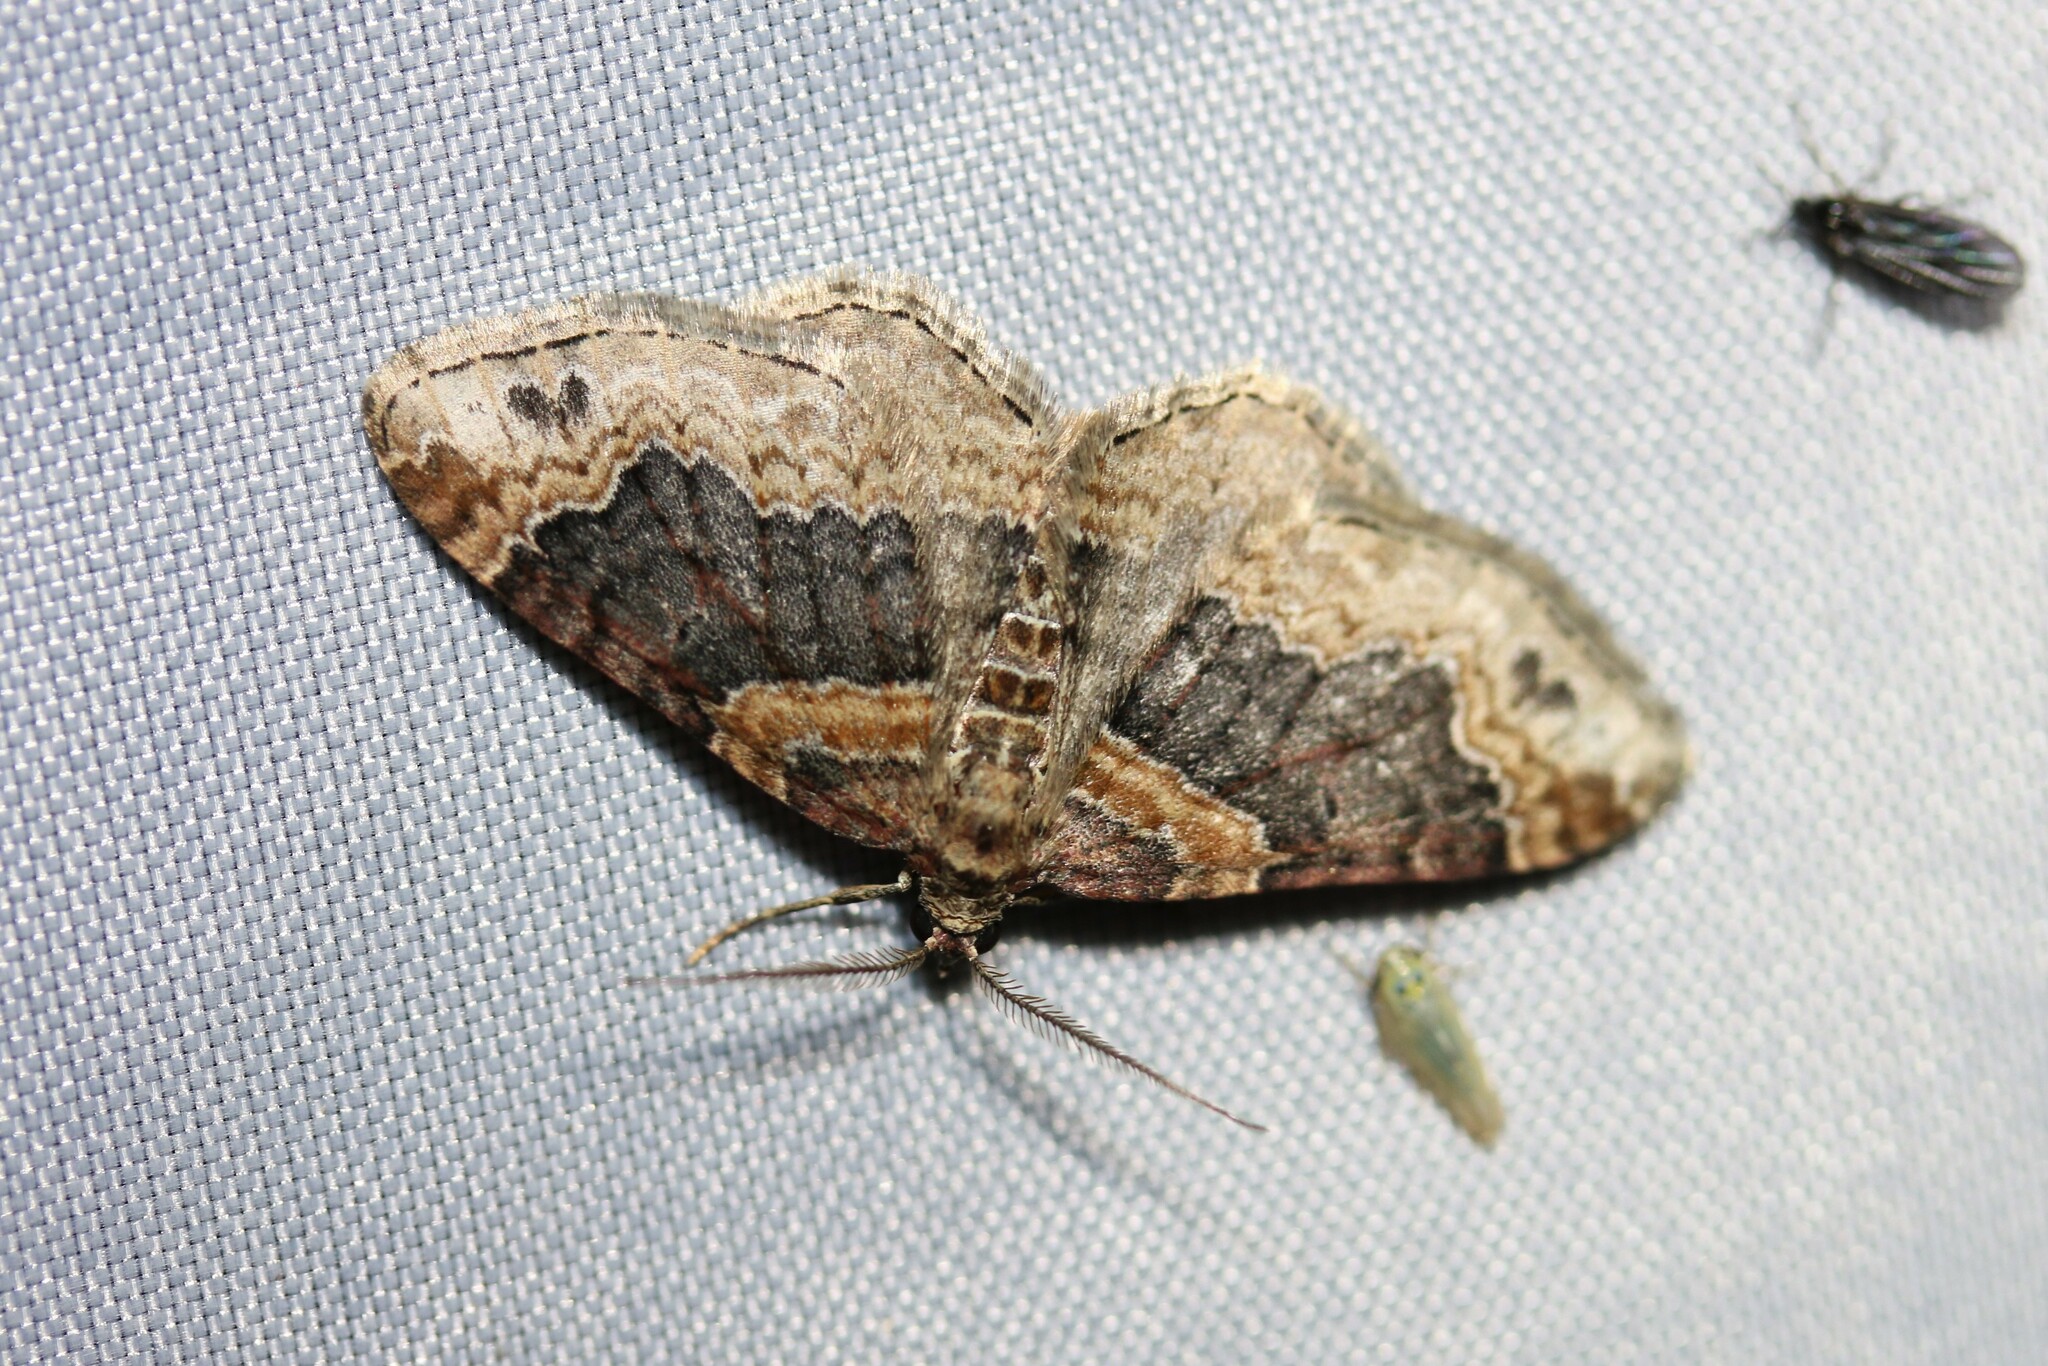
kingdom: Animalia
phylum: Arthropoda
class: Insecta
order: Lepidoptera
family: Geometridae
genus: Xanthorhoe
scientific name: Xanthorhoe ferrugata
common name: Dark-barred twin-spot carpet
